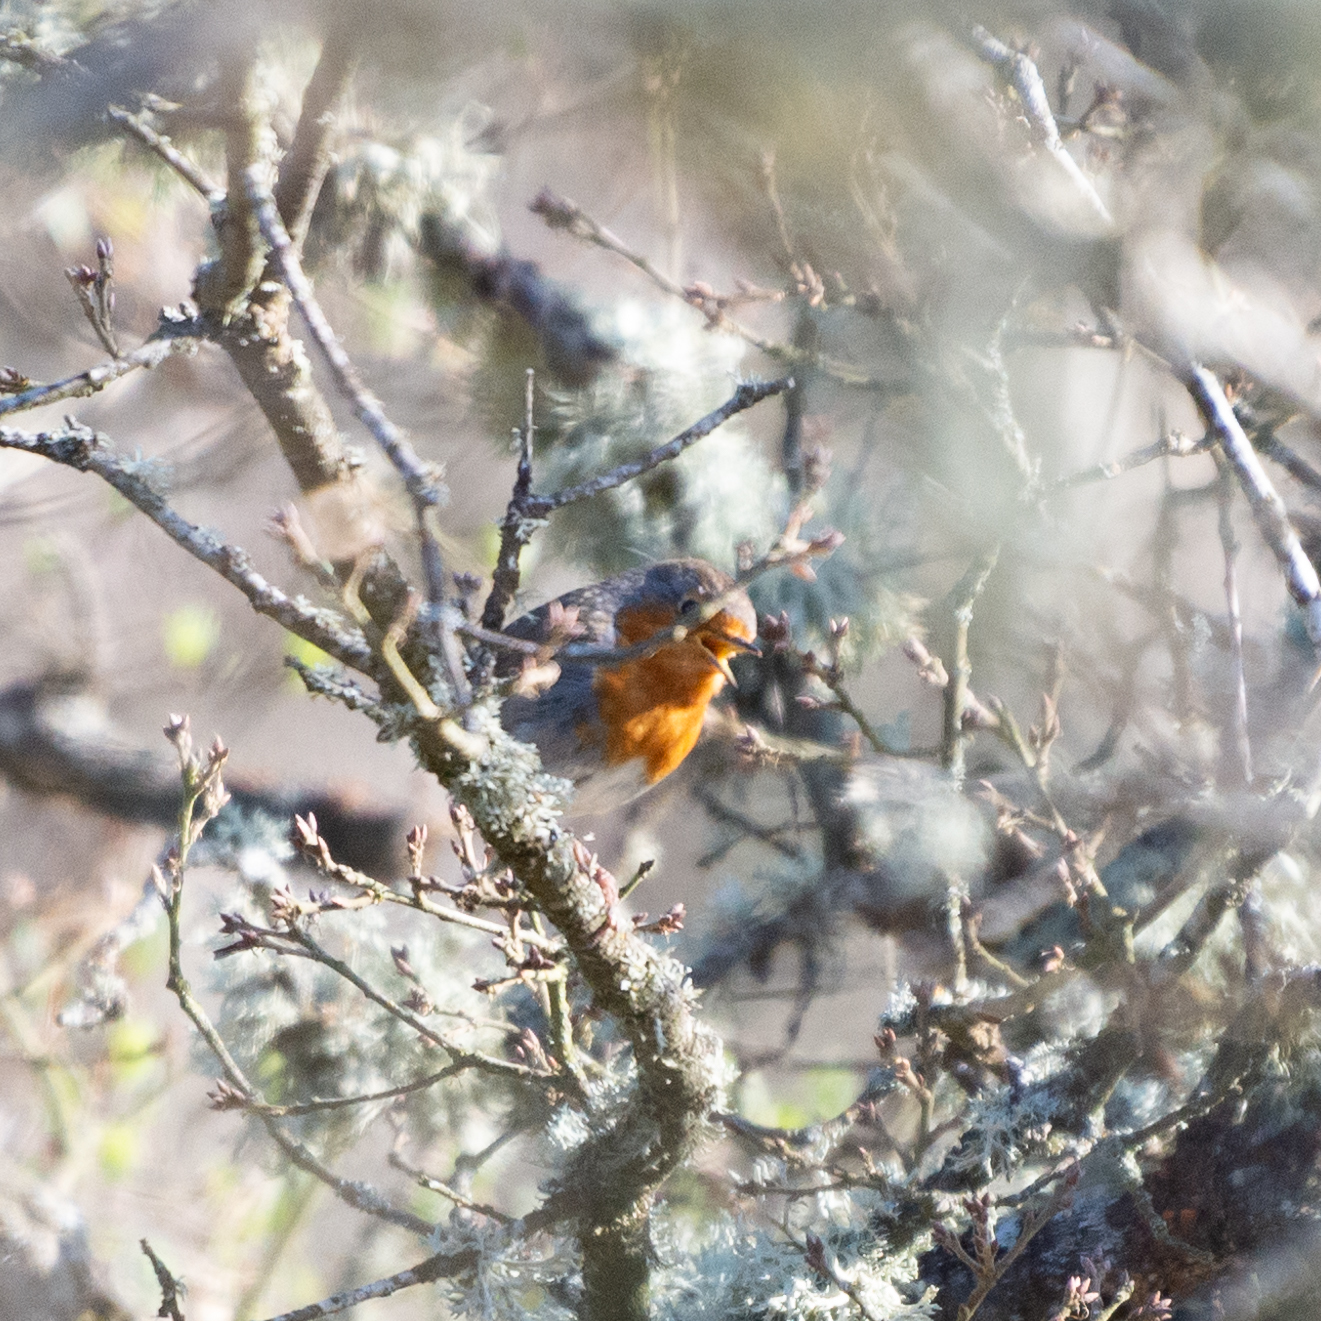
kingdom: Animalia
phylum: Chordata
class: Aves
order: Passeriformes
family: Muscicapidae
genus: Erithacus
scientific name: Erithacus rubecula
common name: European robin
